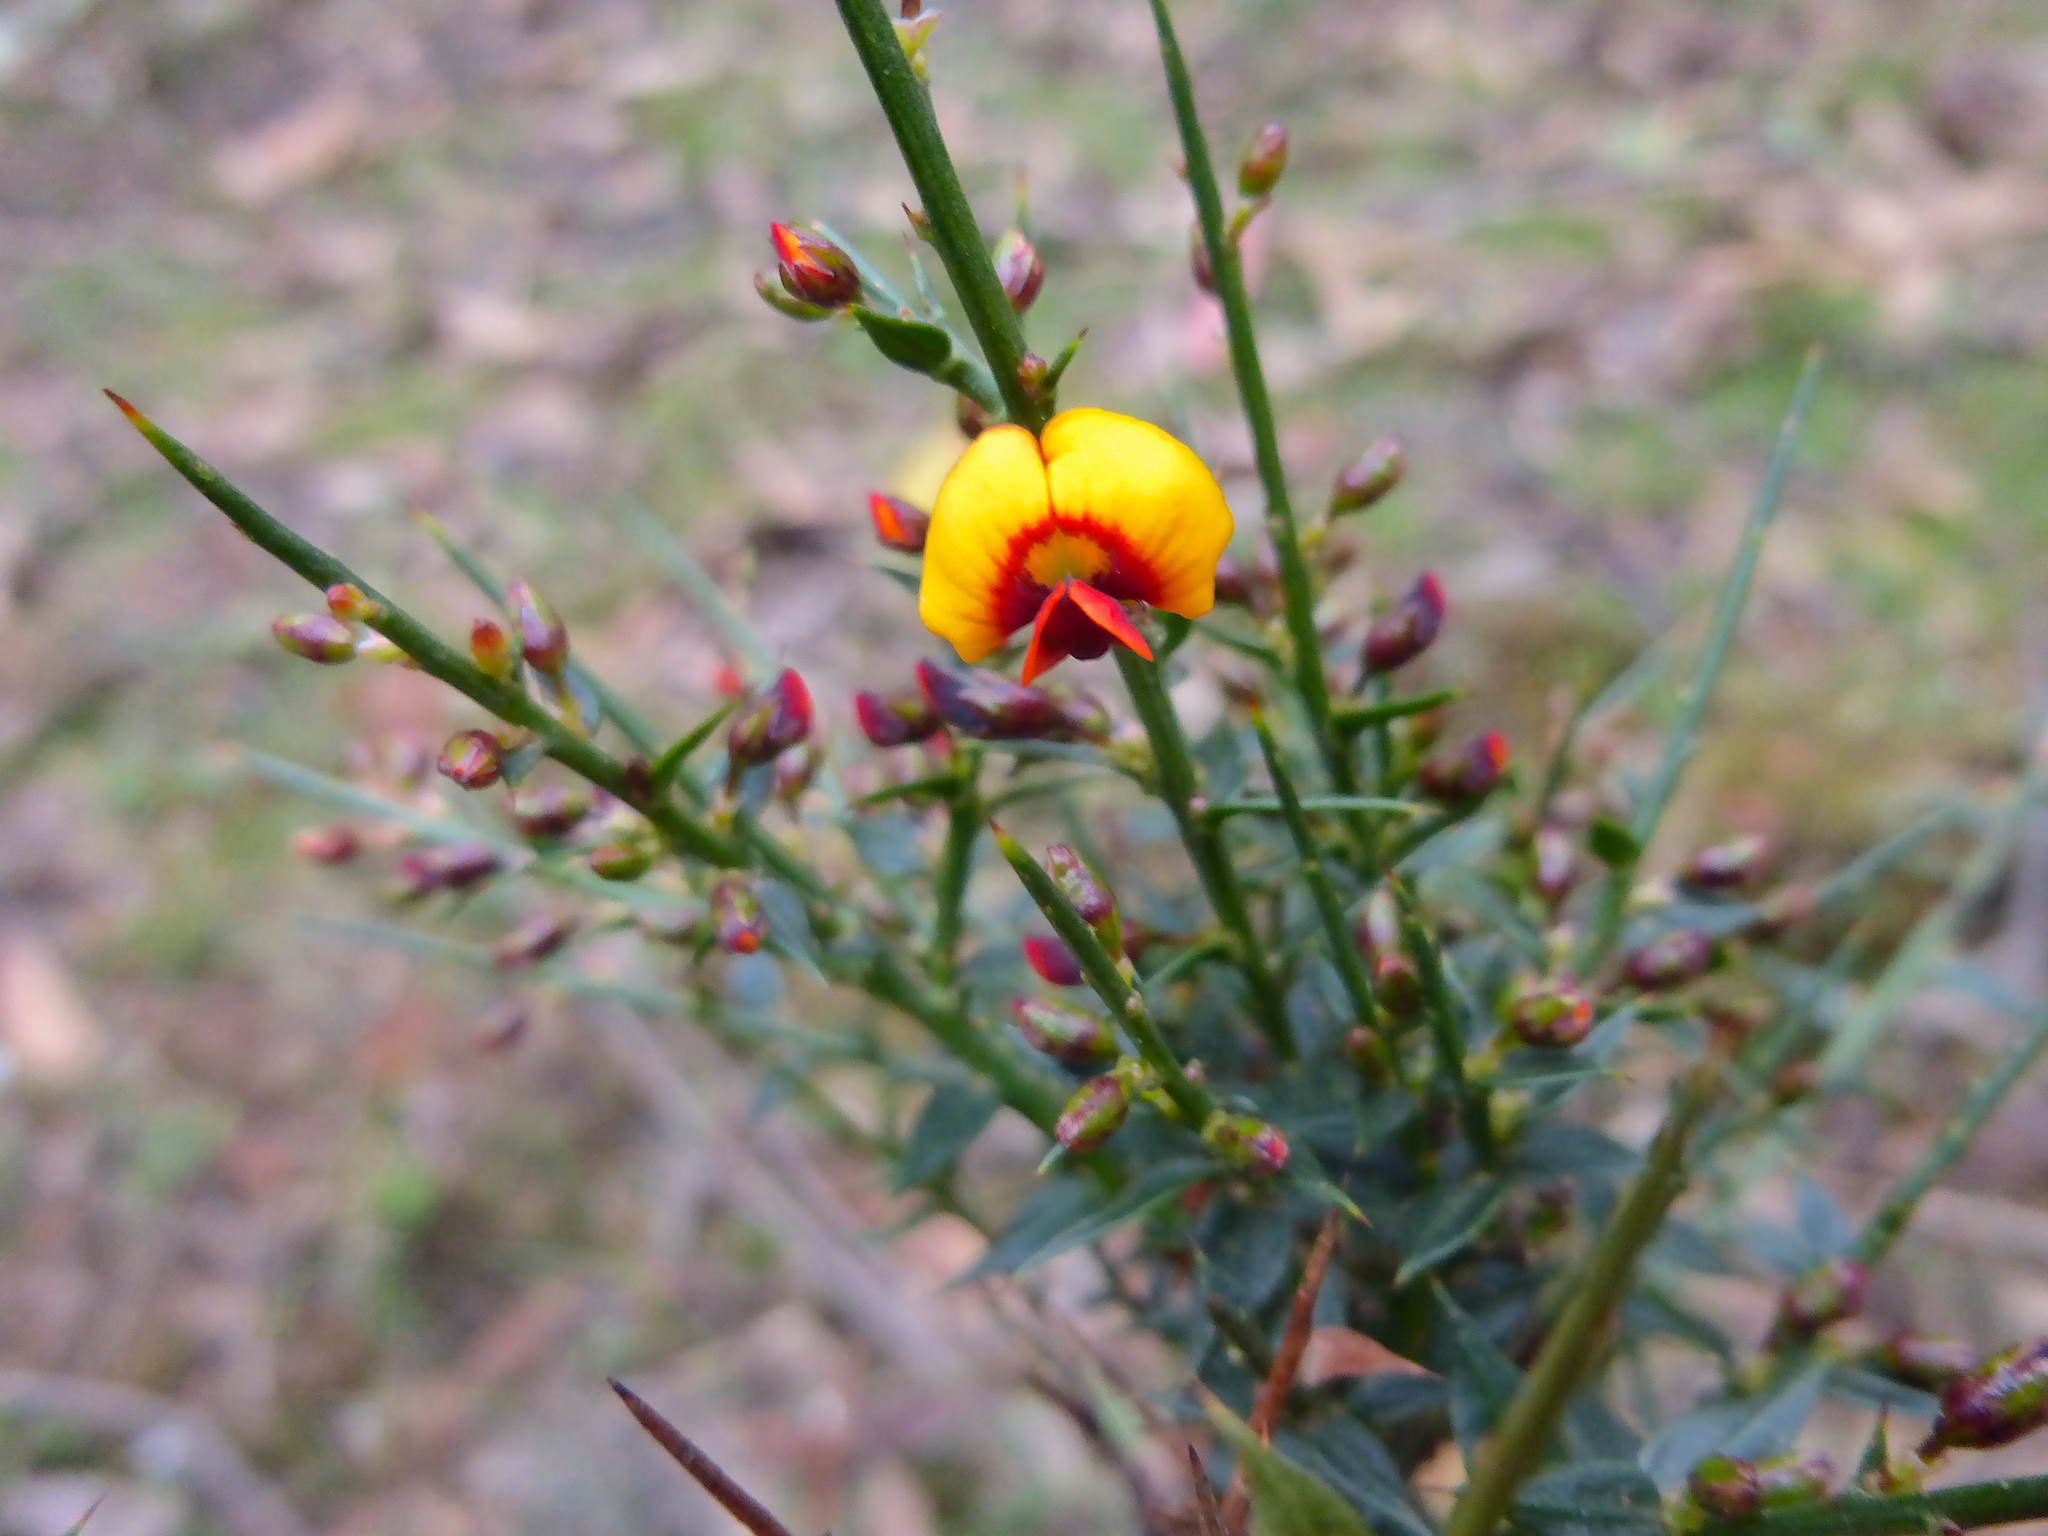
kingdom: Plantae
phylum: Tracheophyta
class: Magnoliopsida
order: Fabales
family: Fabaceae
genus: Daviesia
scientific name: Daviesia ulicifolia
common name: Gorse bitter-pea
